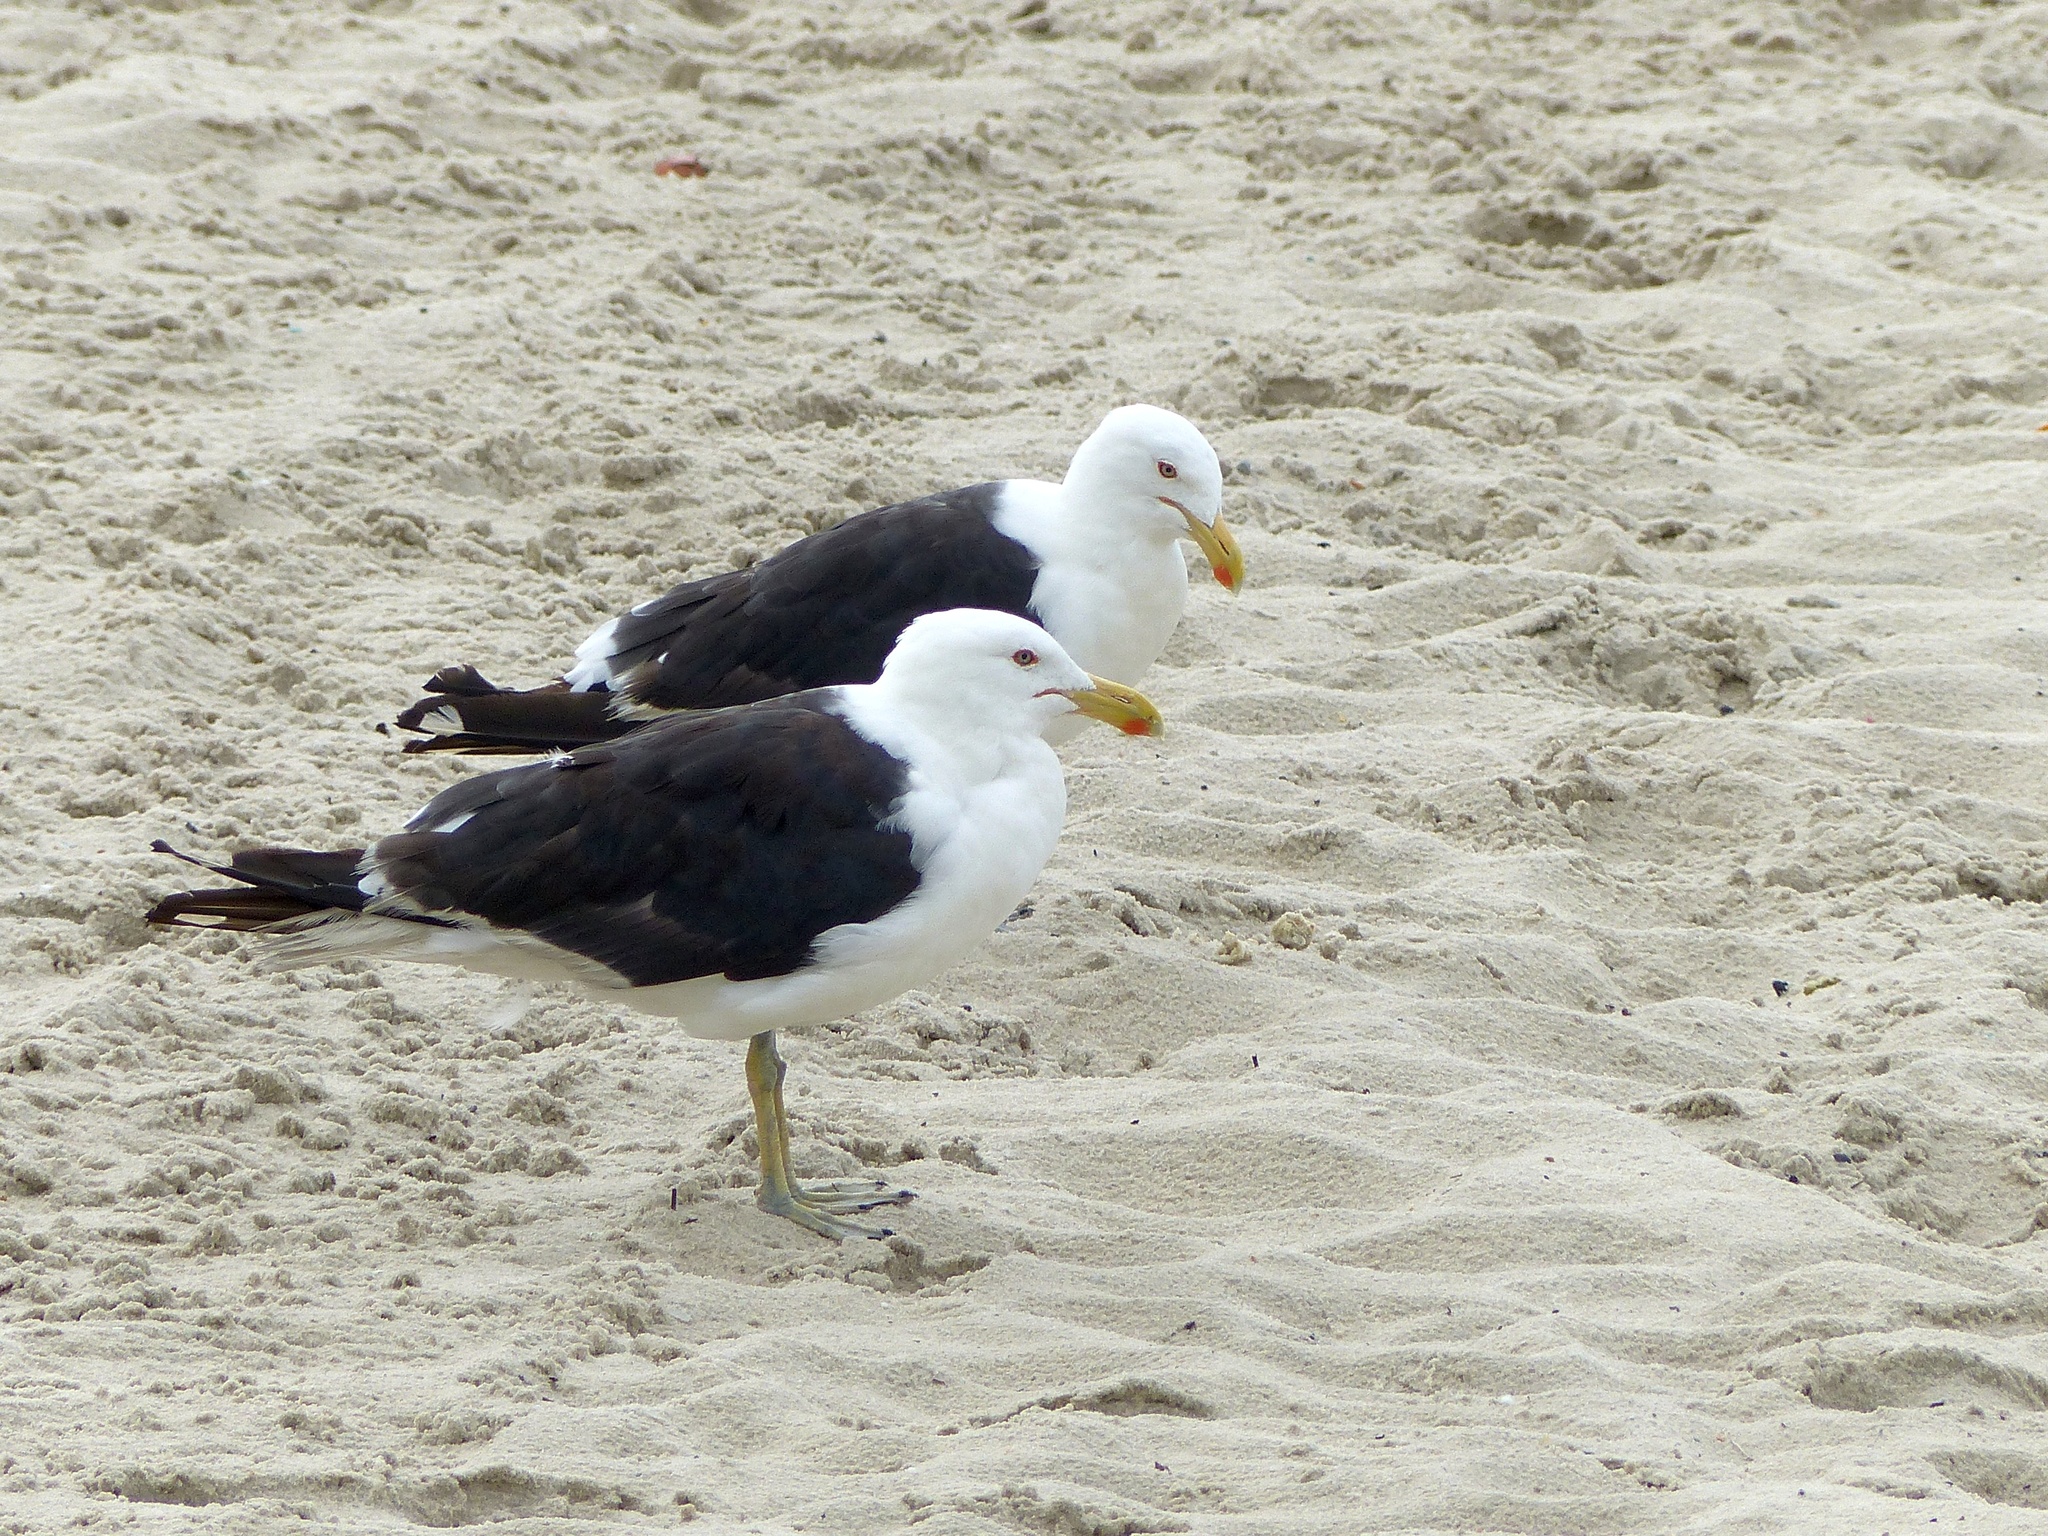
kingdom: Animalia
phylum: Chordata
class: Aves
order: Charadriiformes
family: Laridae
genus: Larus
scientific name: Larus dominicanus
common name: Kelp gull
